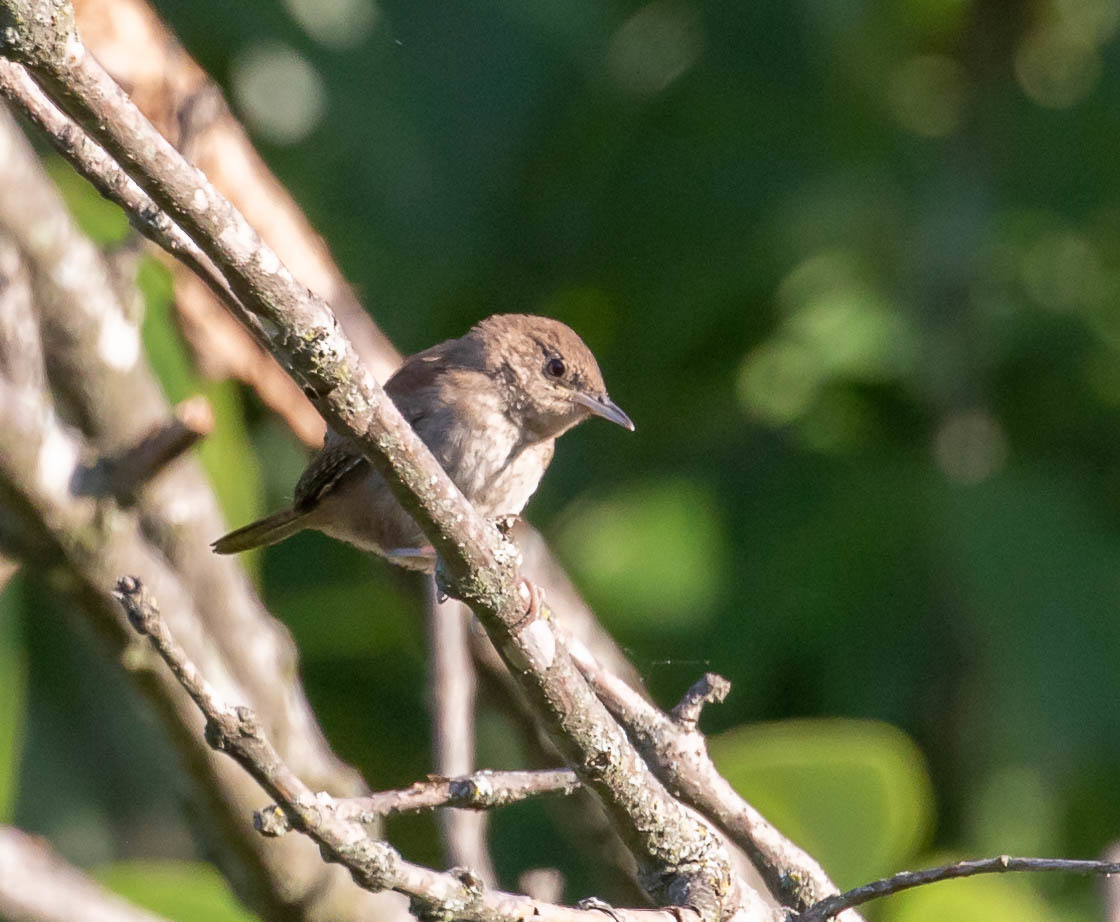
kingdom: Animalia
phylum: Chordata
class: Aves
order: Passeriformes
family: Troglodytidae
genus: Troglodytes
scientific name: Troglodytes aedon
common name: House wren
